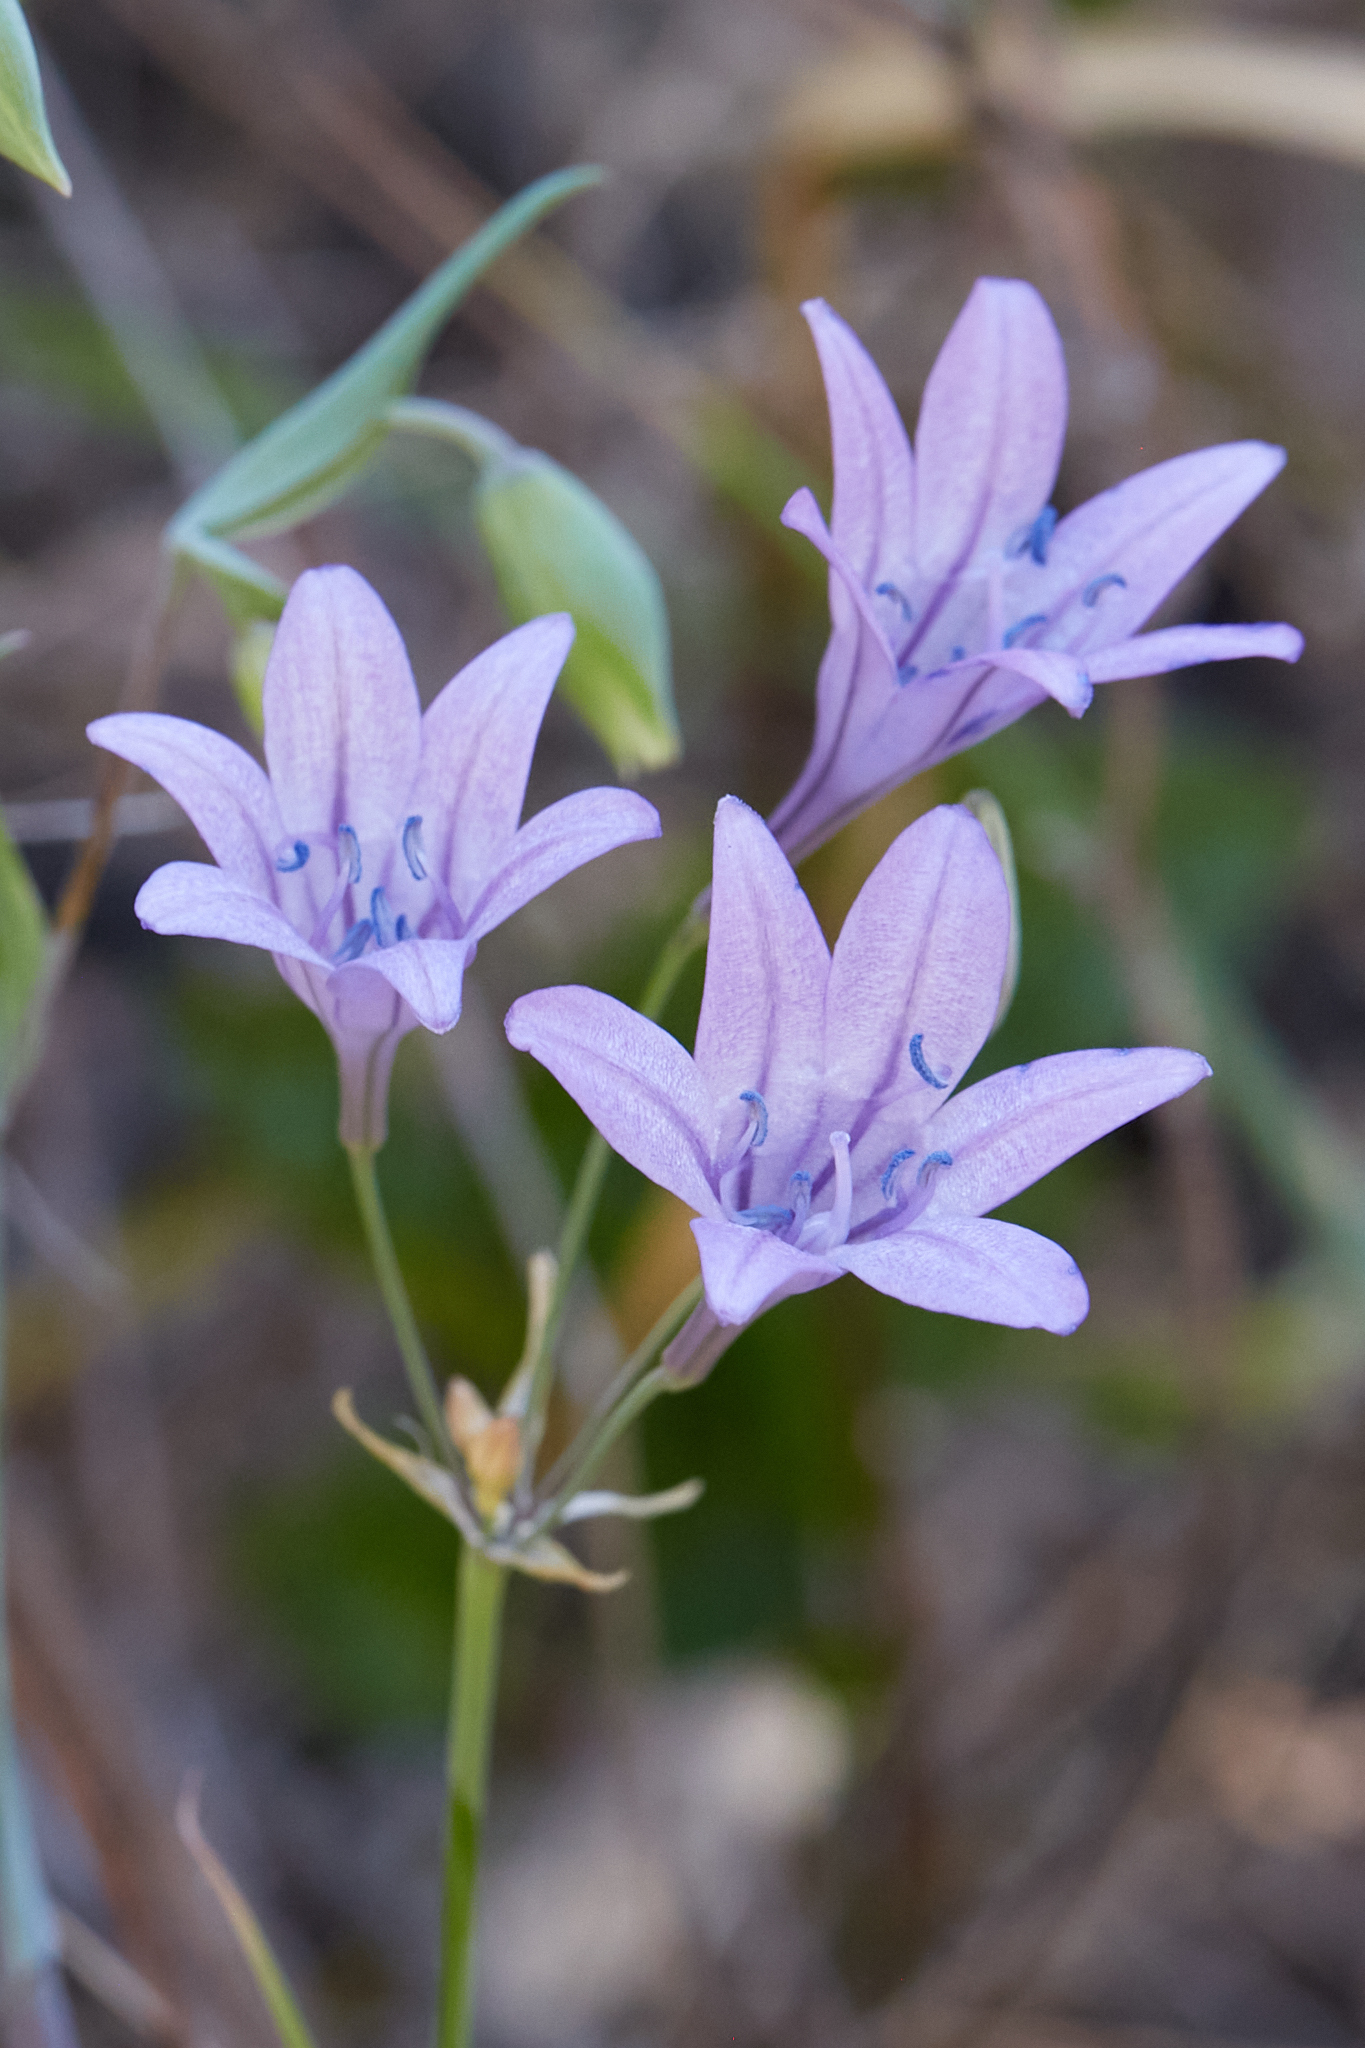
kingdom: Plantae
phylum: Tracheophyta
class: Liliopsida
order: Asparagales
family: Asparagaceae
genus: Triteleia
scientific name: Triteleia laxa
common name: Triplet-lily
